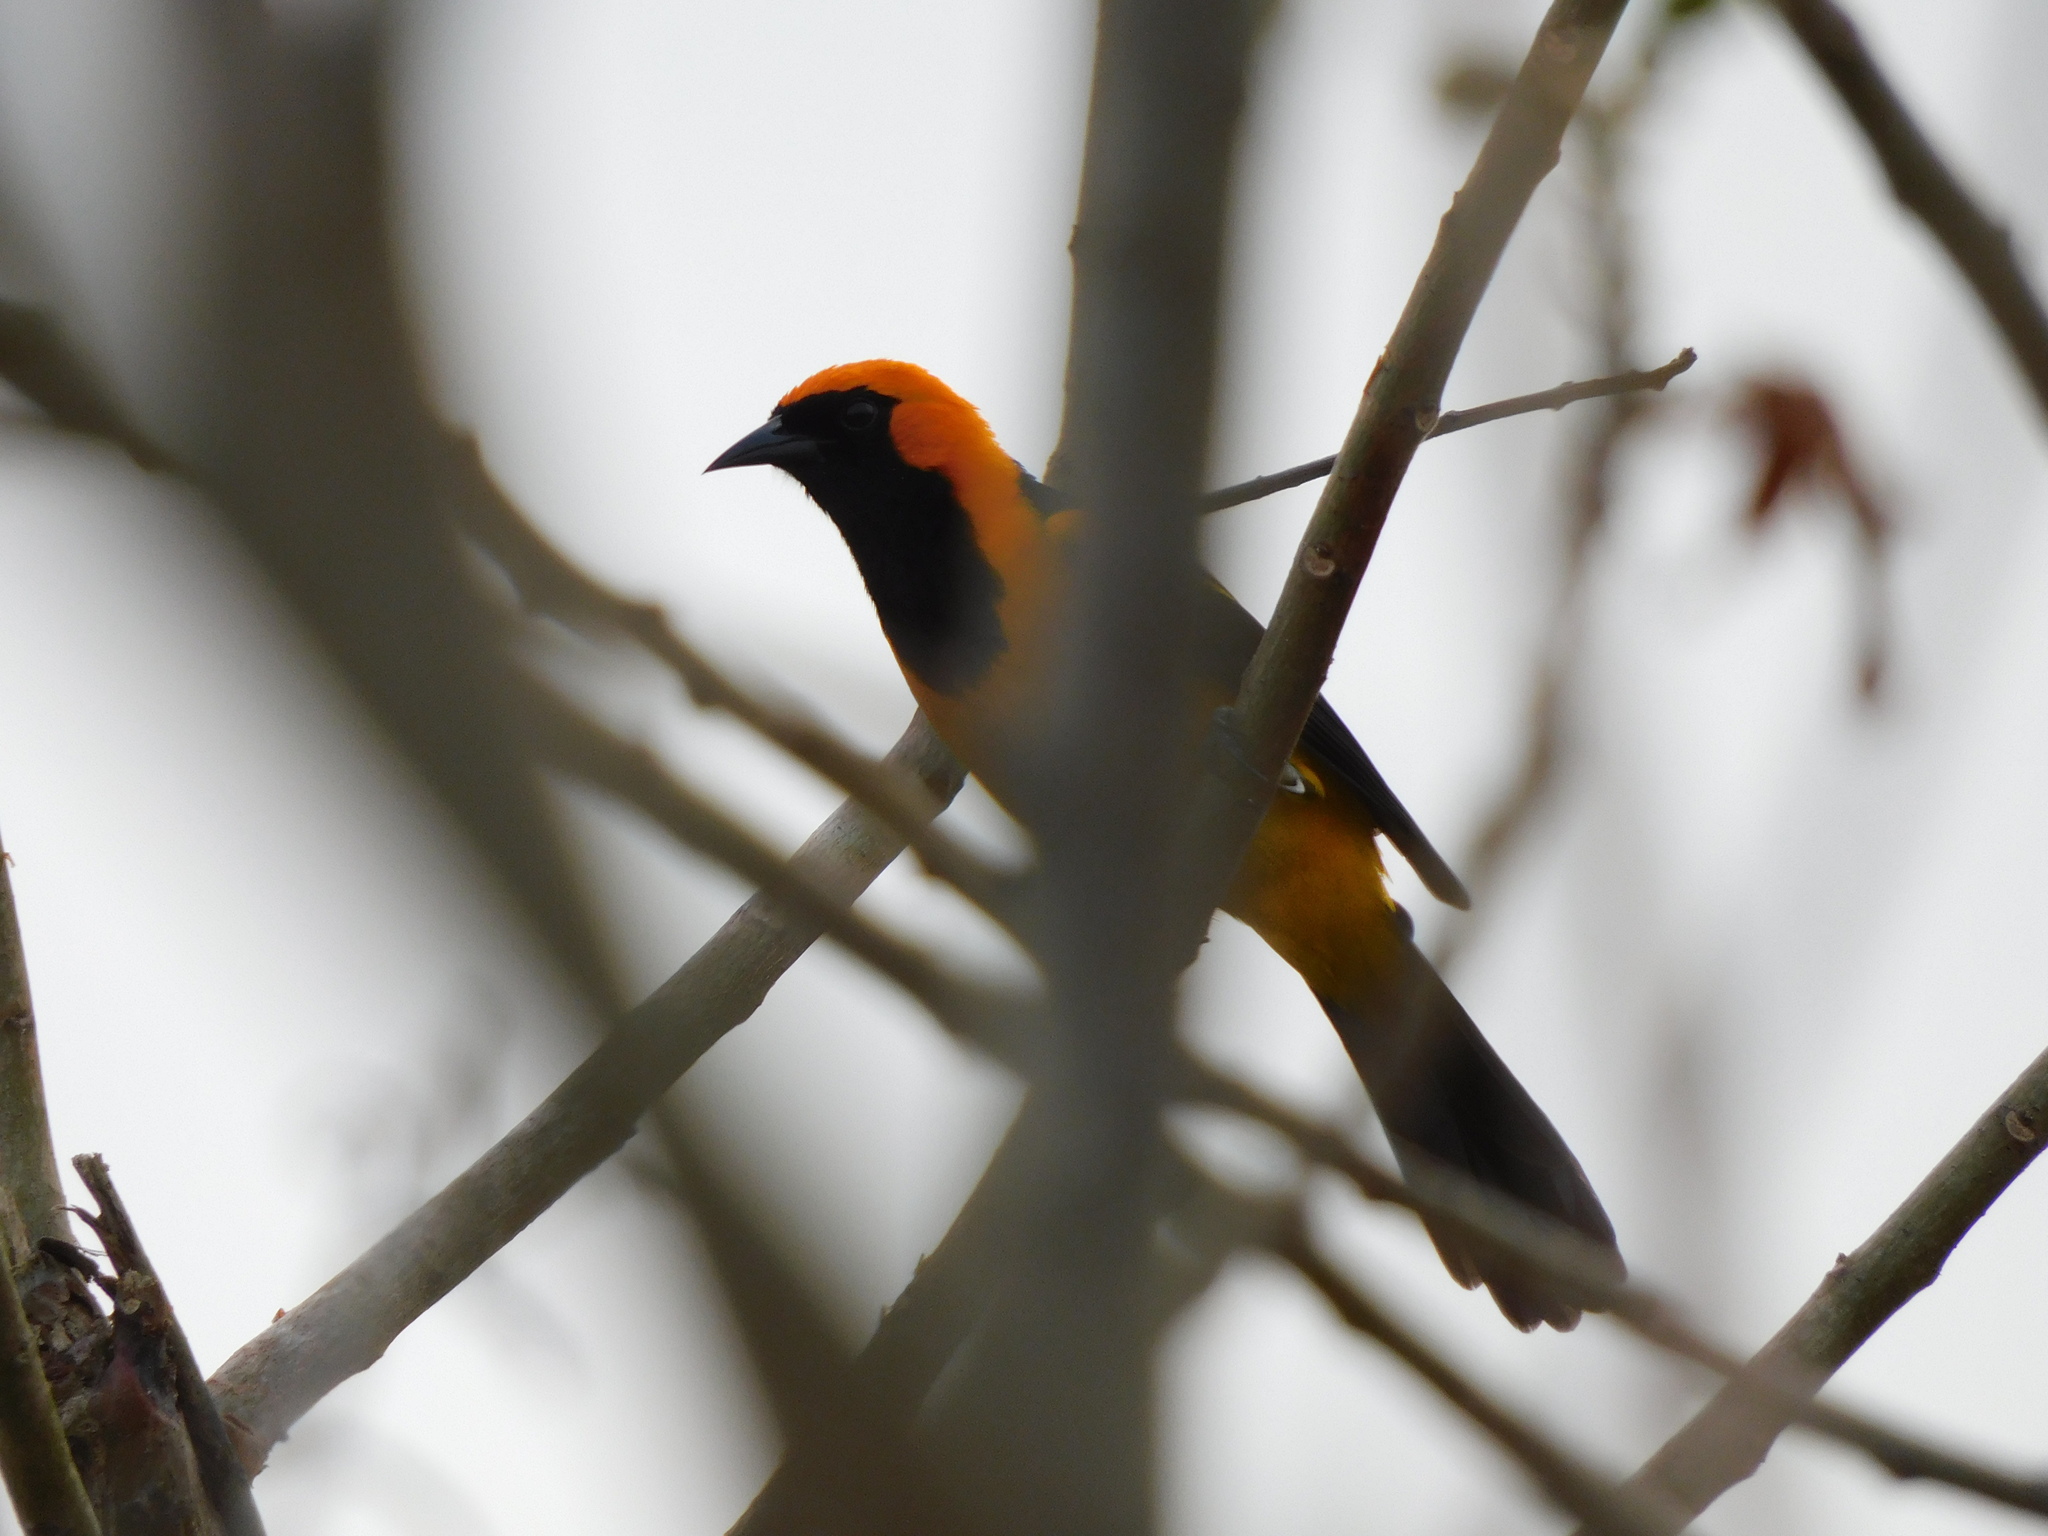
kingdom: Animalia
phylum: Chordata
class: Aves
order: Passeriformes
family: Icteridae
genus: Icterus
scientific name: Icterus auricapillus
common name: Orange-crowned oriole
